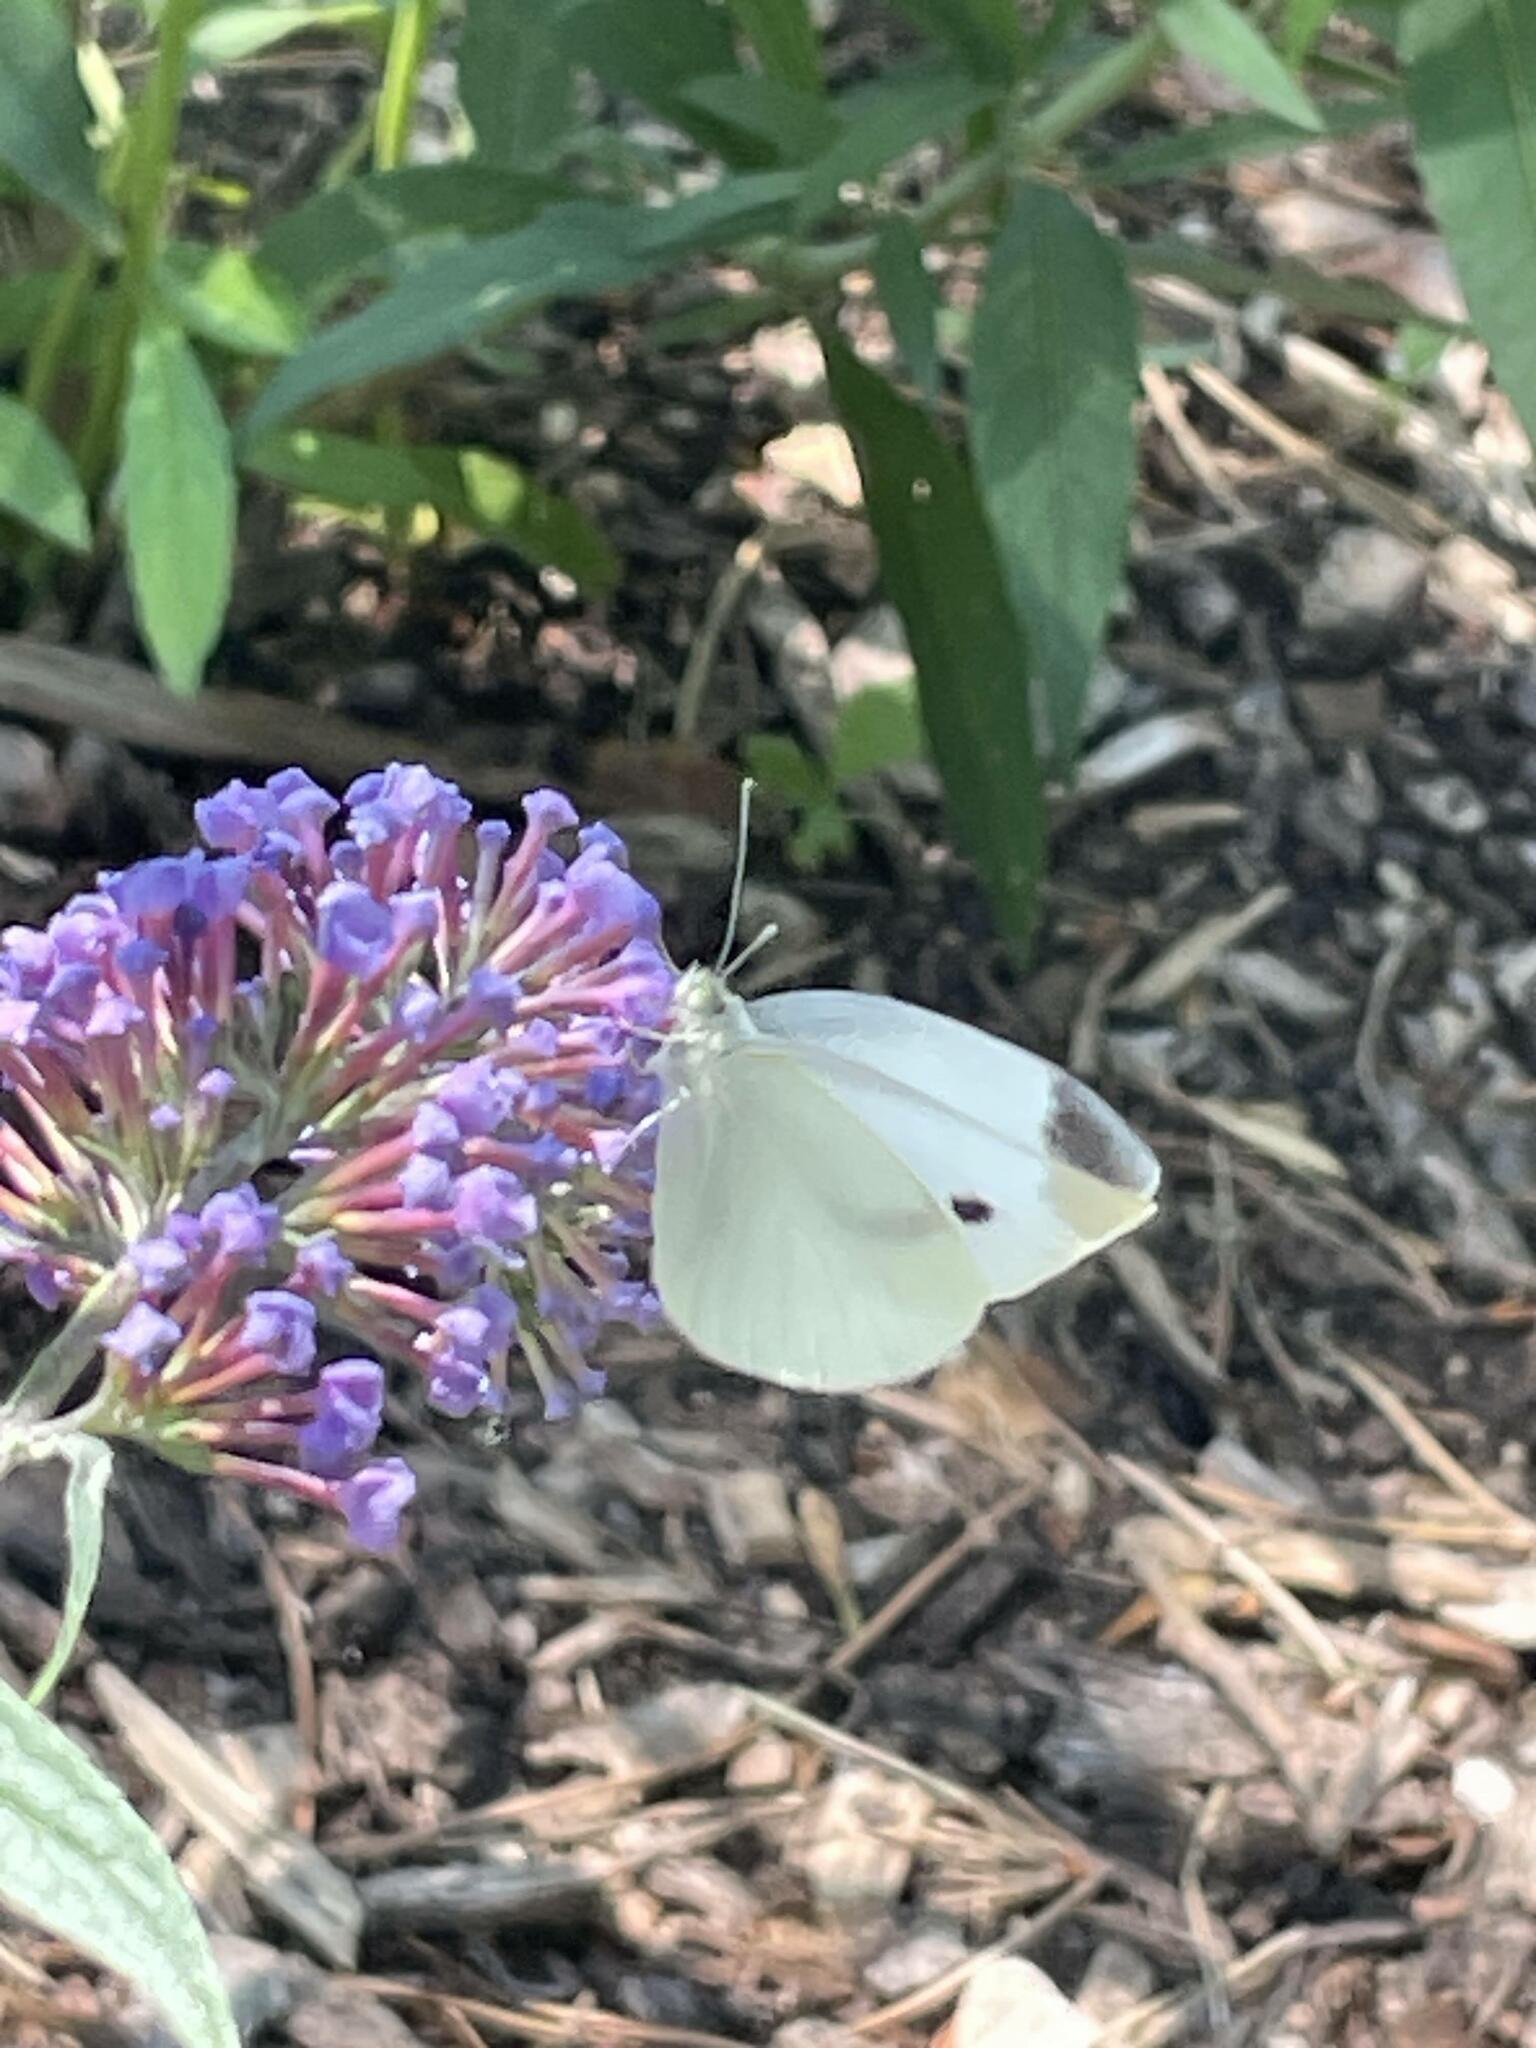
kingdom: Animalia
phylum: Arthropoda
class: Insecta
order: Lepidoptera
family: Pieridae
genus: Pieris
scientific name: Pieris rapae
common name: Small white
